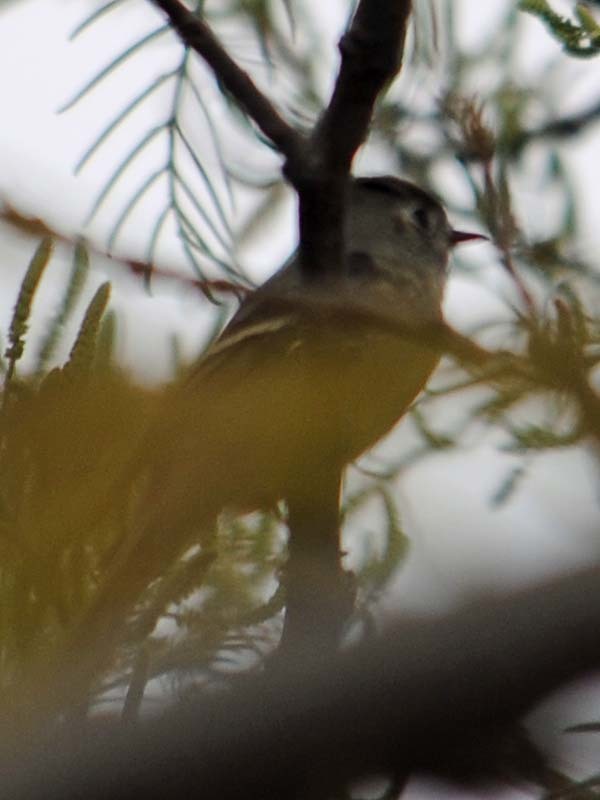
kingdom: Animalia
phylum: Chordata
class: Aves
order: Passeriformes
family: Regulidae
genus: Regulus
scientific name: Regulus calendula
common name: Ruby-crowned kinglet
